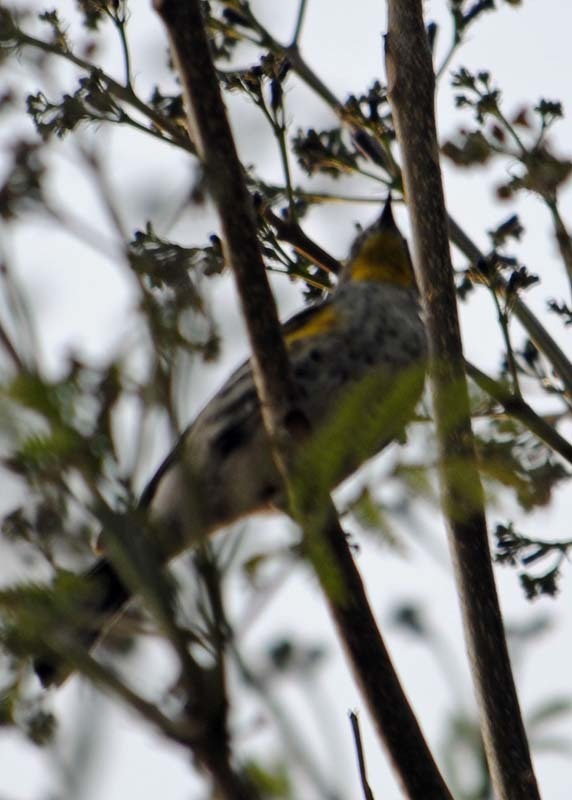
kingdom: Animalia
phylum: Chordata
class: Aves
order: Passeriformes
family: Parulidae
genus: Setophaga
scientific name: Setophaga auduboni
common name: Audubon's warbler
